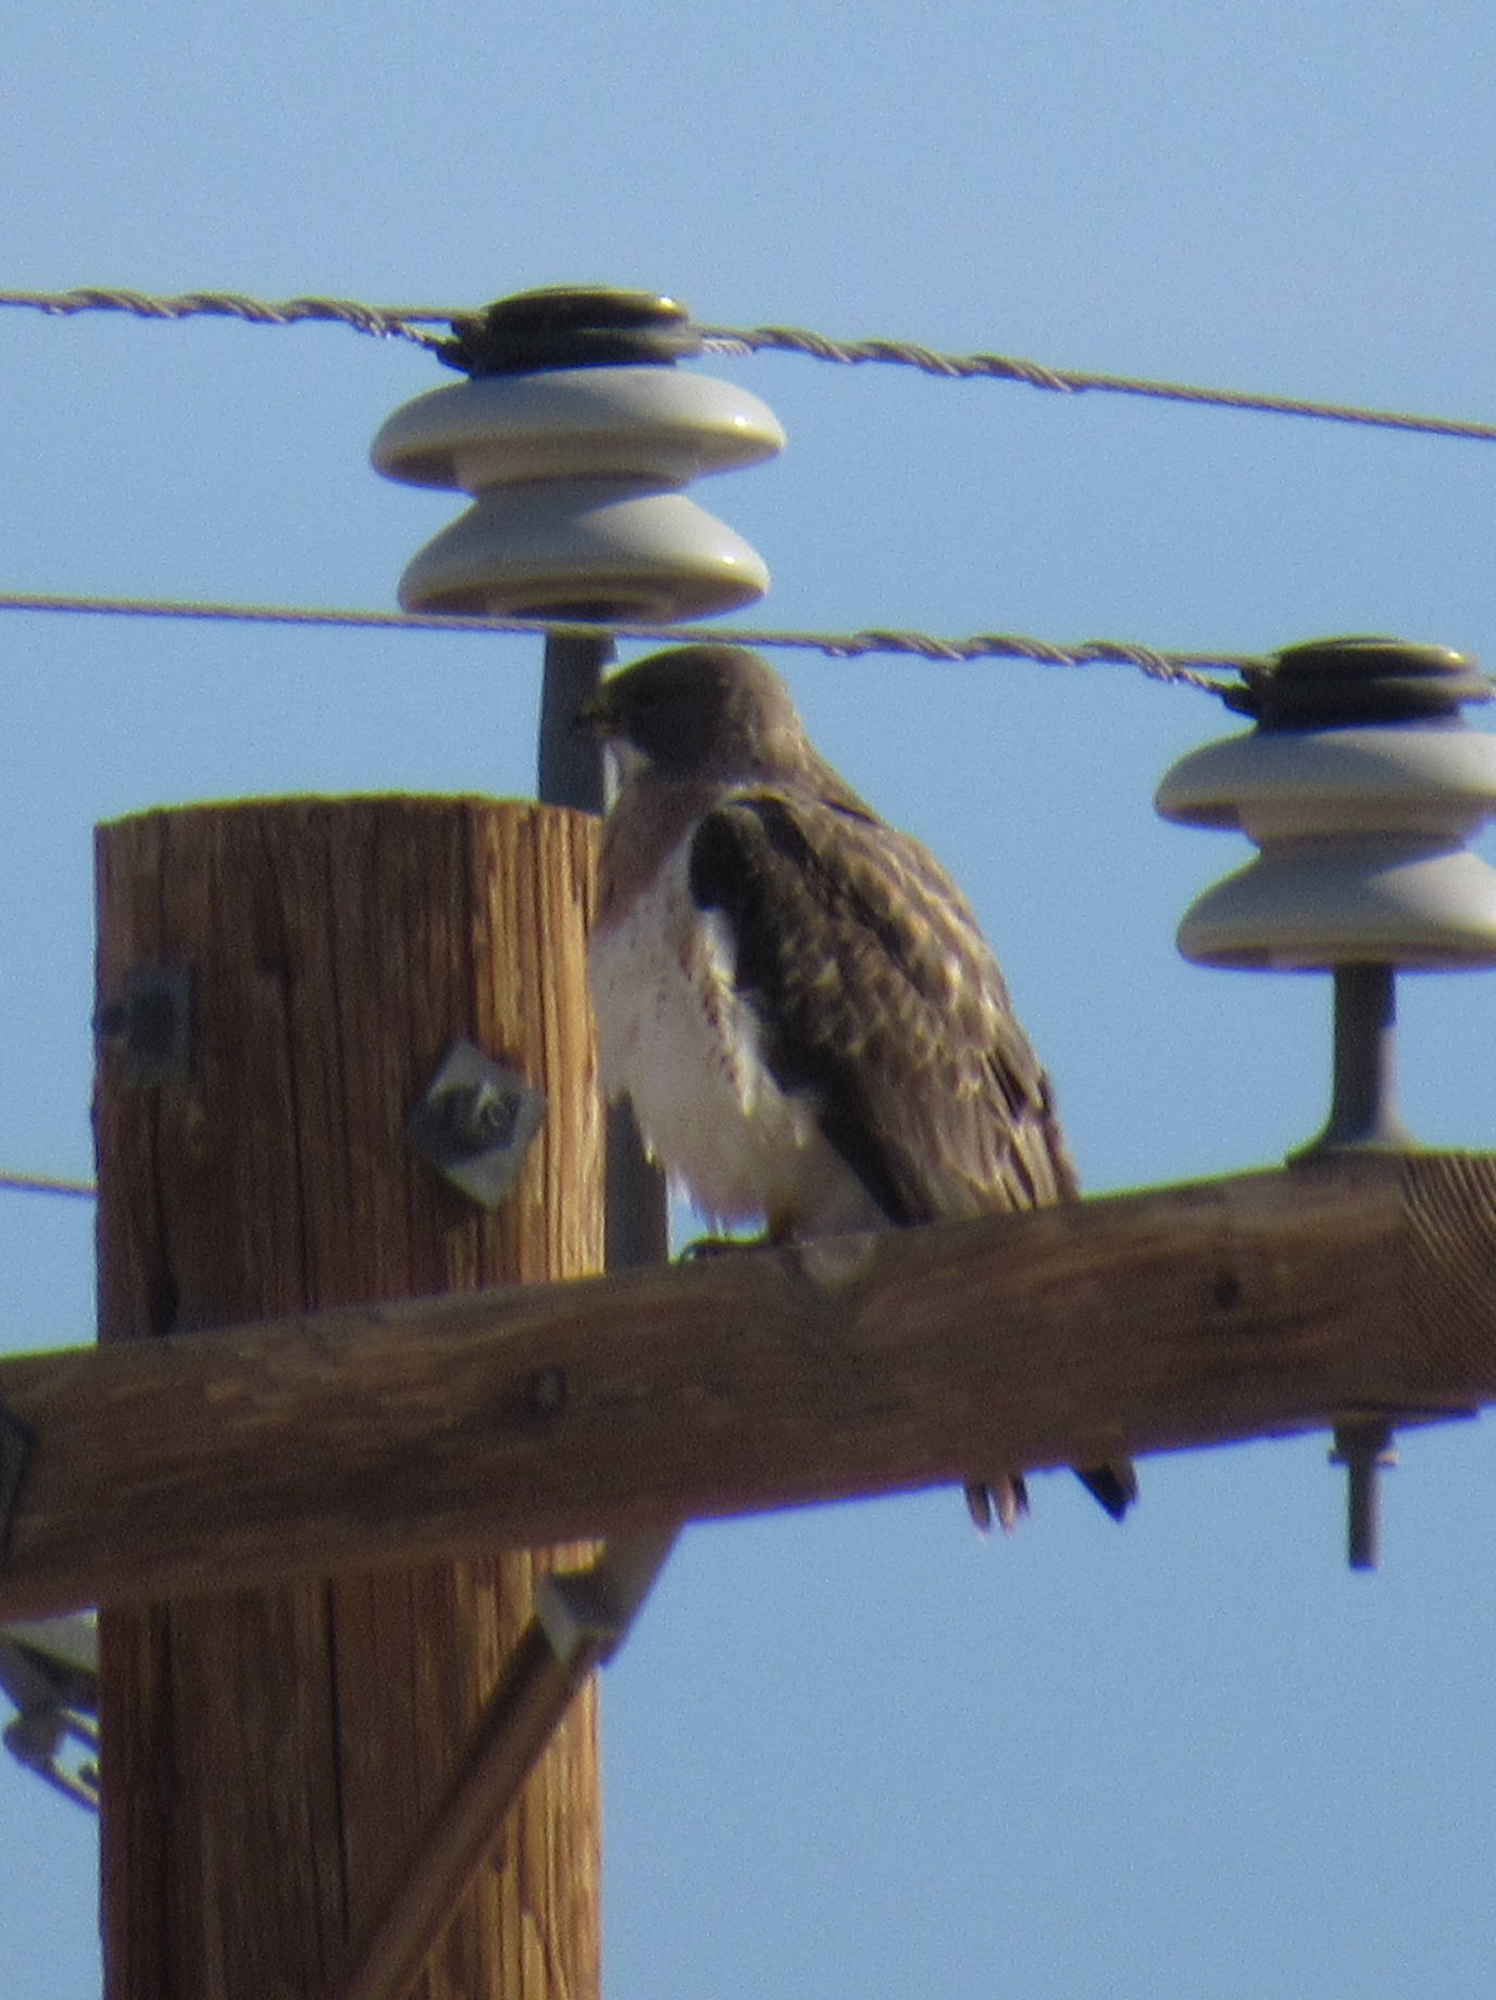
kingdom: Animalia
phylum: Chordata
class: Aves
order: Accipitriformes
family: Accipitridae
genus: Buteo
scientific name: Buteo swainsoni
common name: Swainson's hawk
